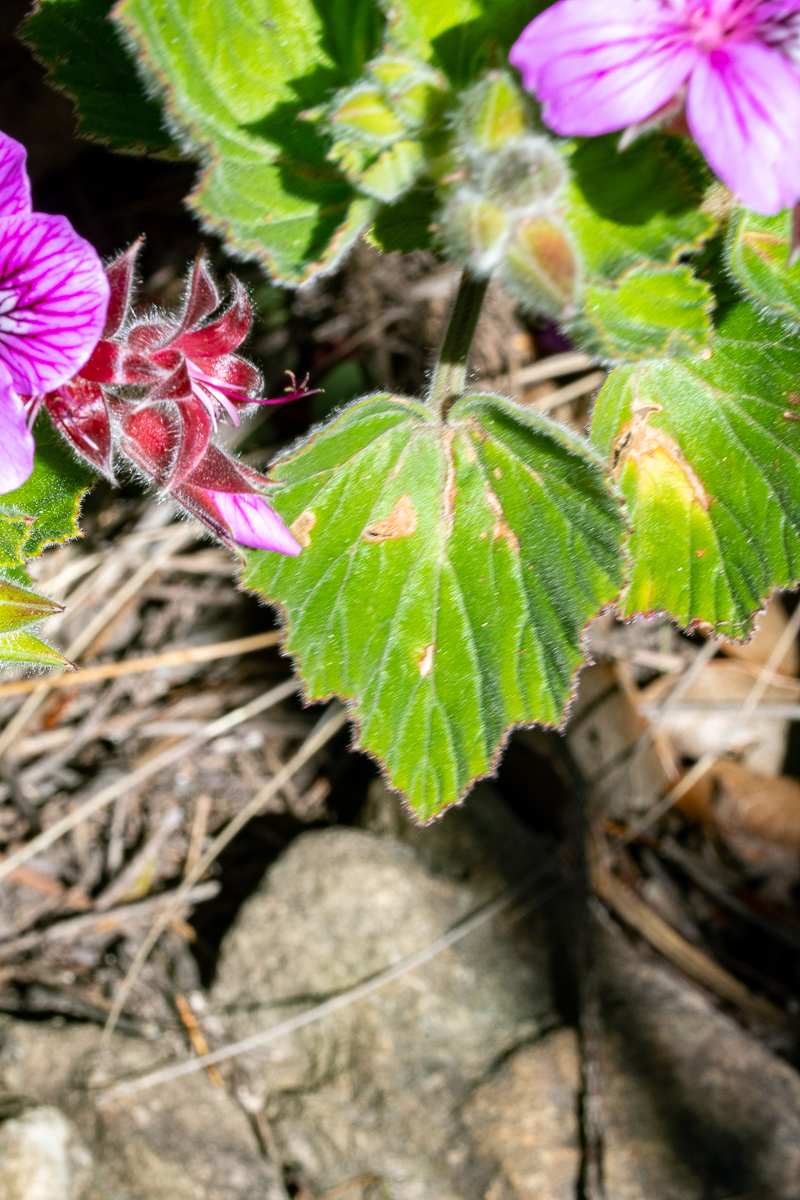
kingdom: Plantae
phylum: Tracheophyta
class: Magnoliopsida
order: Geraniales
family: Geraniaceae
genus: Pelargonium
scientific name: Pelargonium cucullatum
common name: Tree pelargonium
